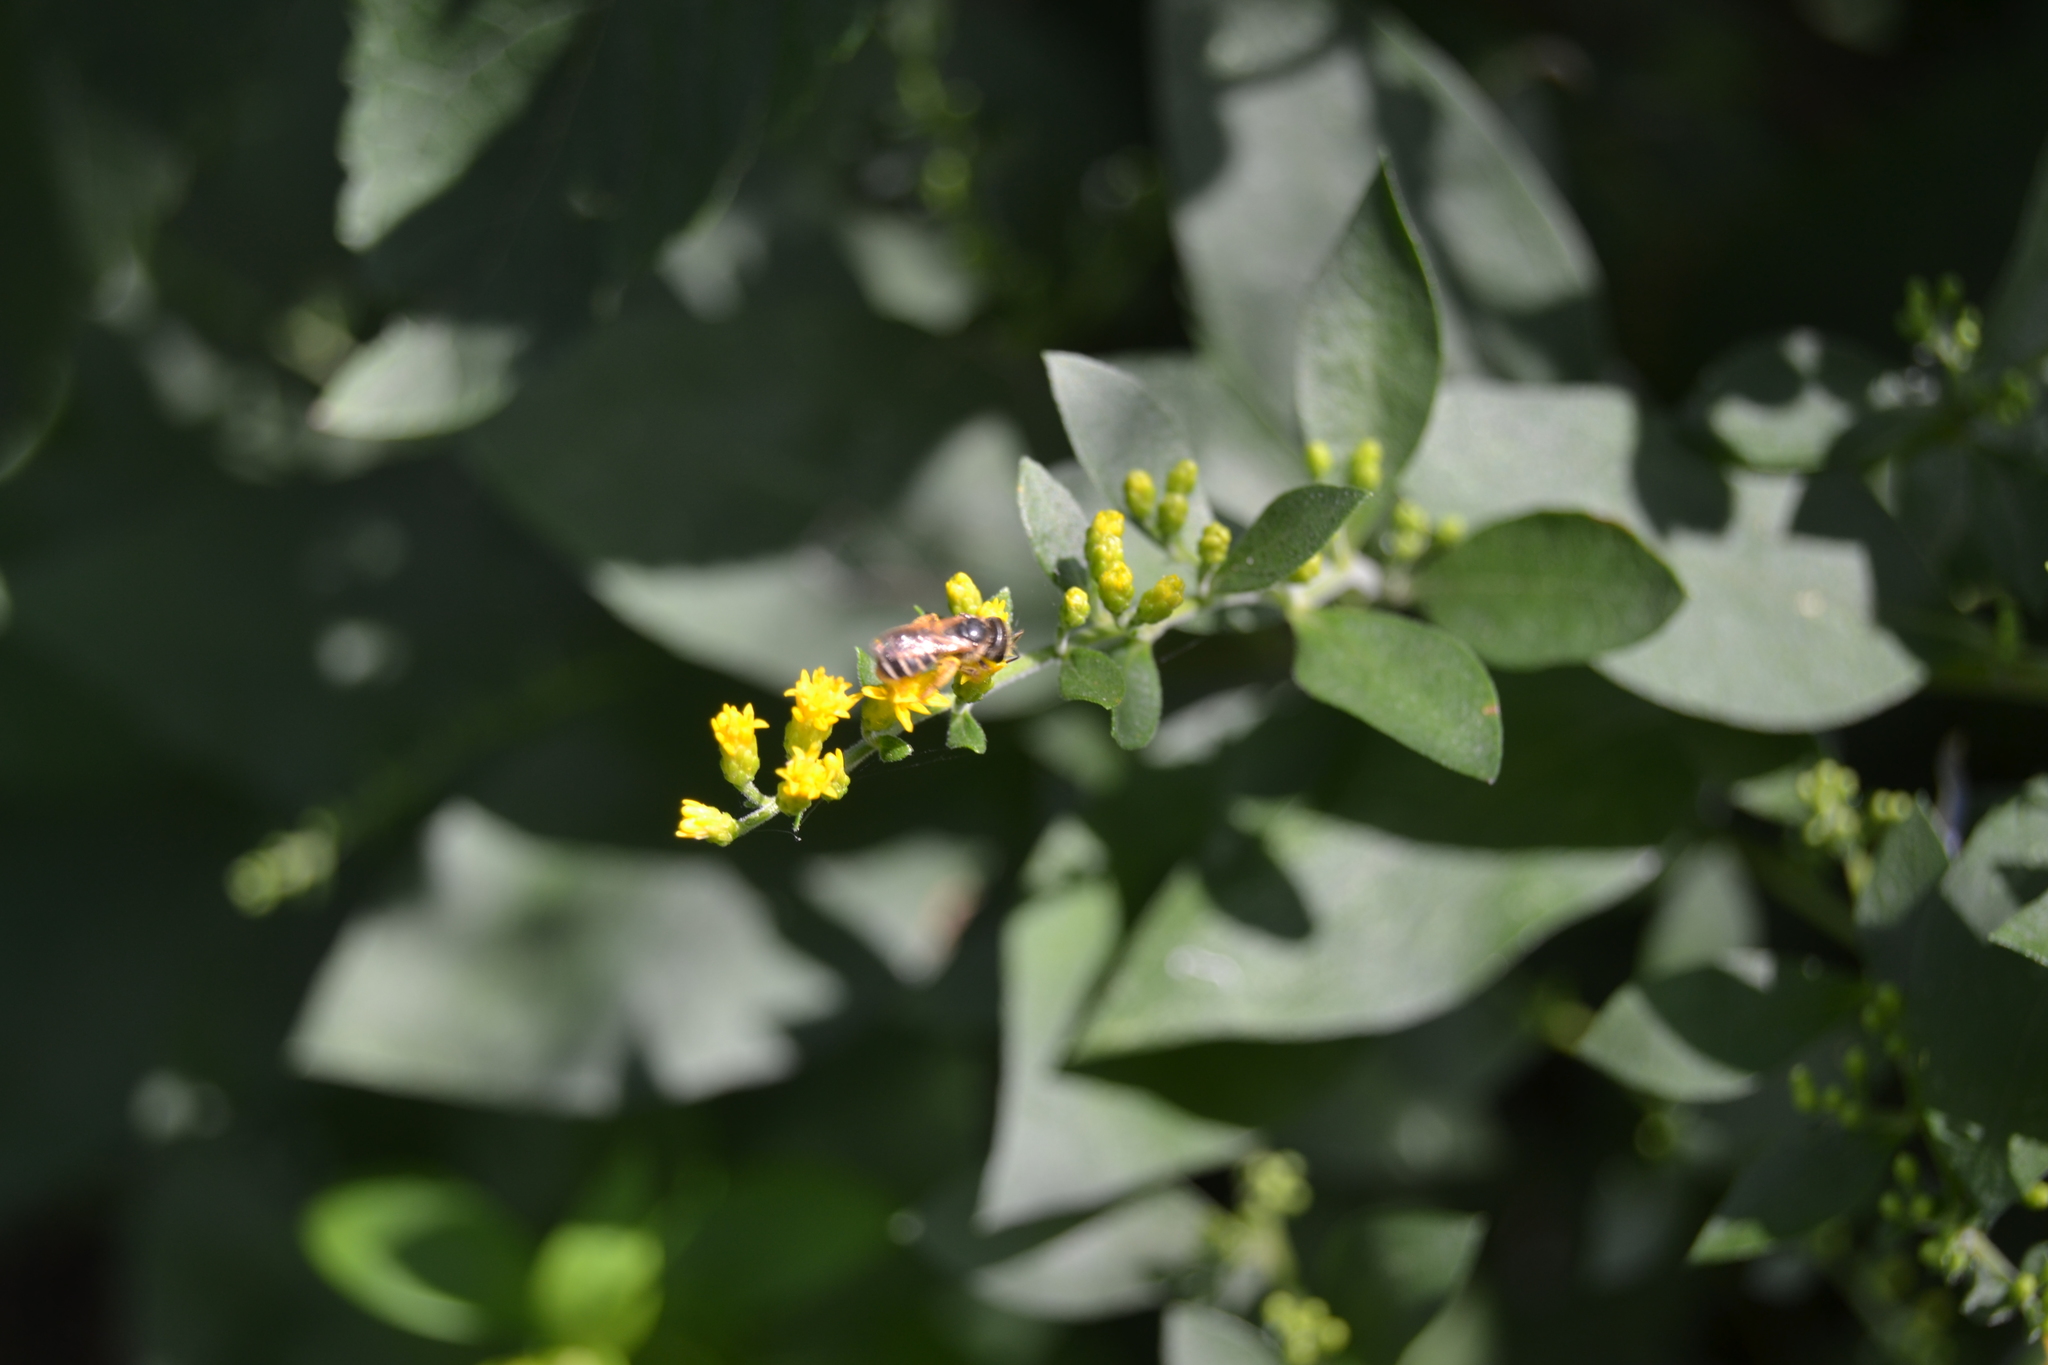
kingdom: Animalia
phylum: Arthropoda
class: Insecta
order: Hymenoptera
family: Halictidae
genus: Halictus
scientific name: Halictus ligatus
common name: Ligated furrow bee
